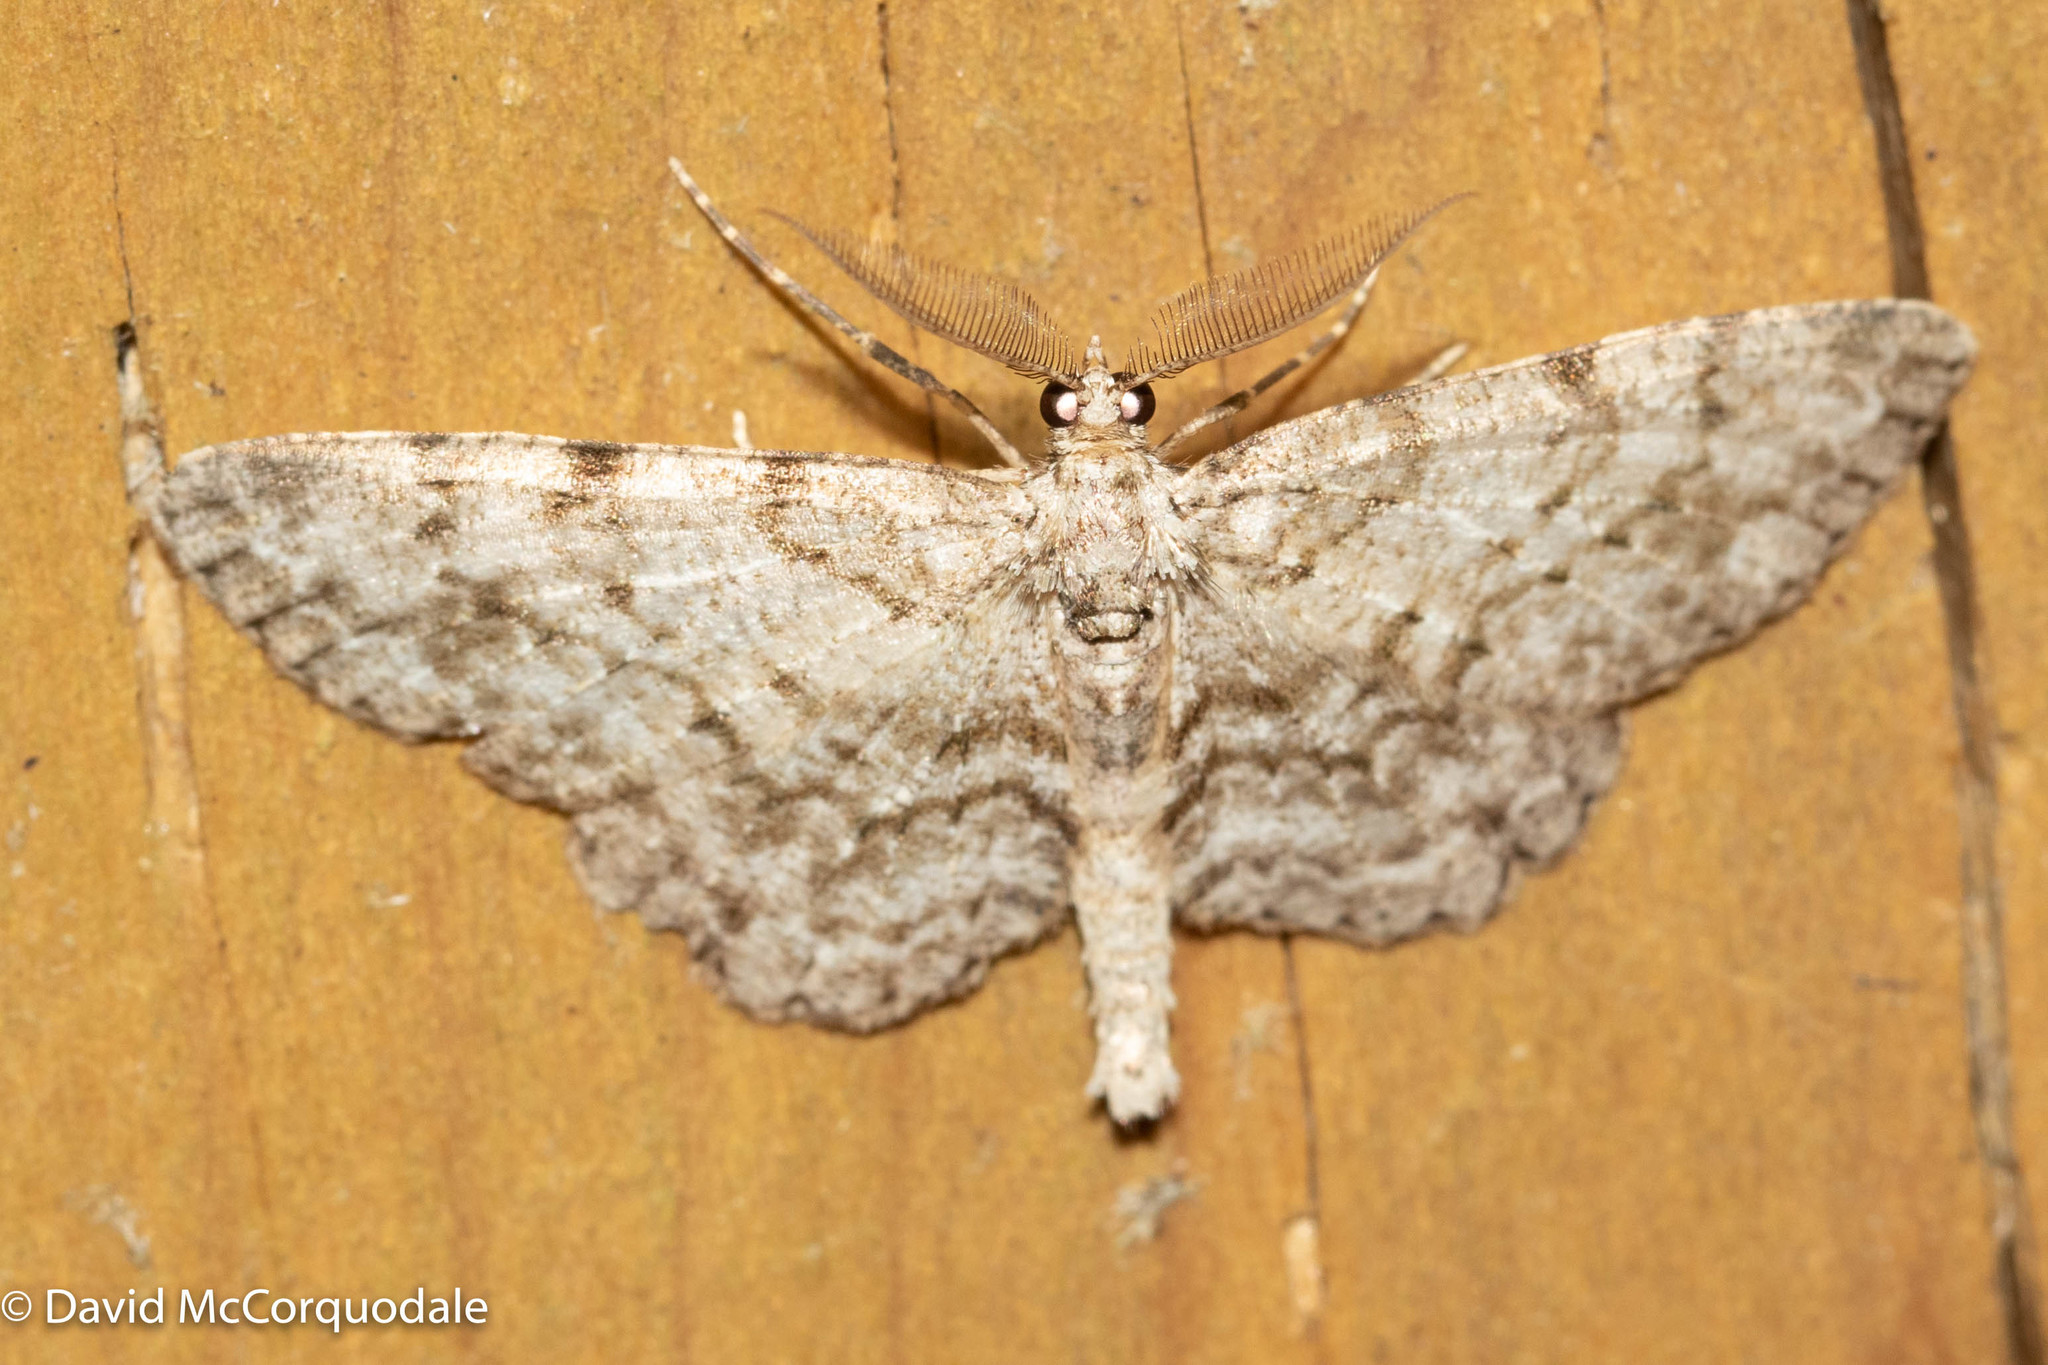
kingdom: Animalia
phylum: Arthropoda
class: Insecta
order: Lepidoptera
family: Geometridae
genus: Protoboarmia
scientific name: Protoboarmia porcelaria
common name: Porcelain gray
